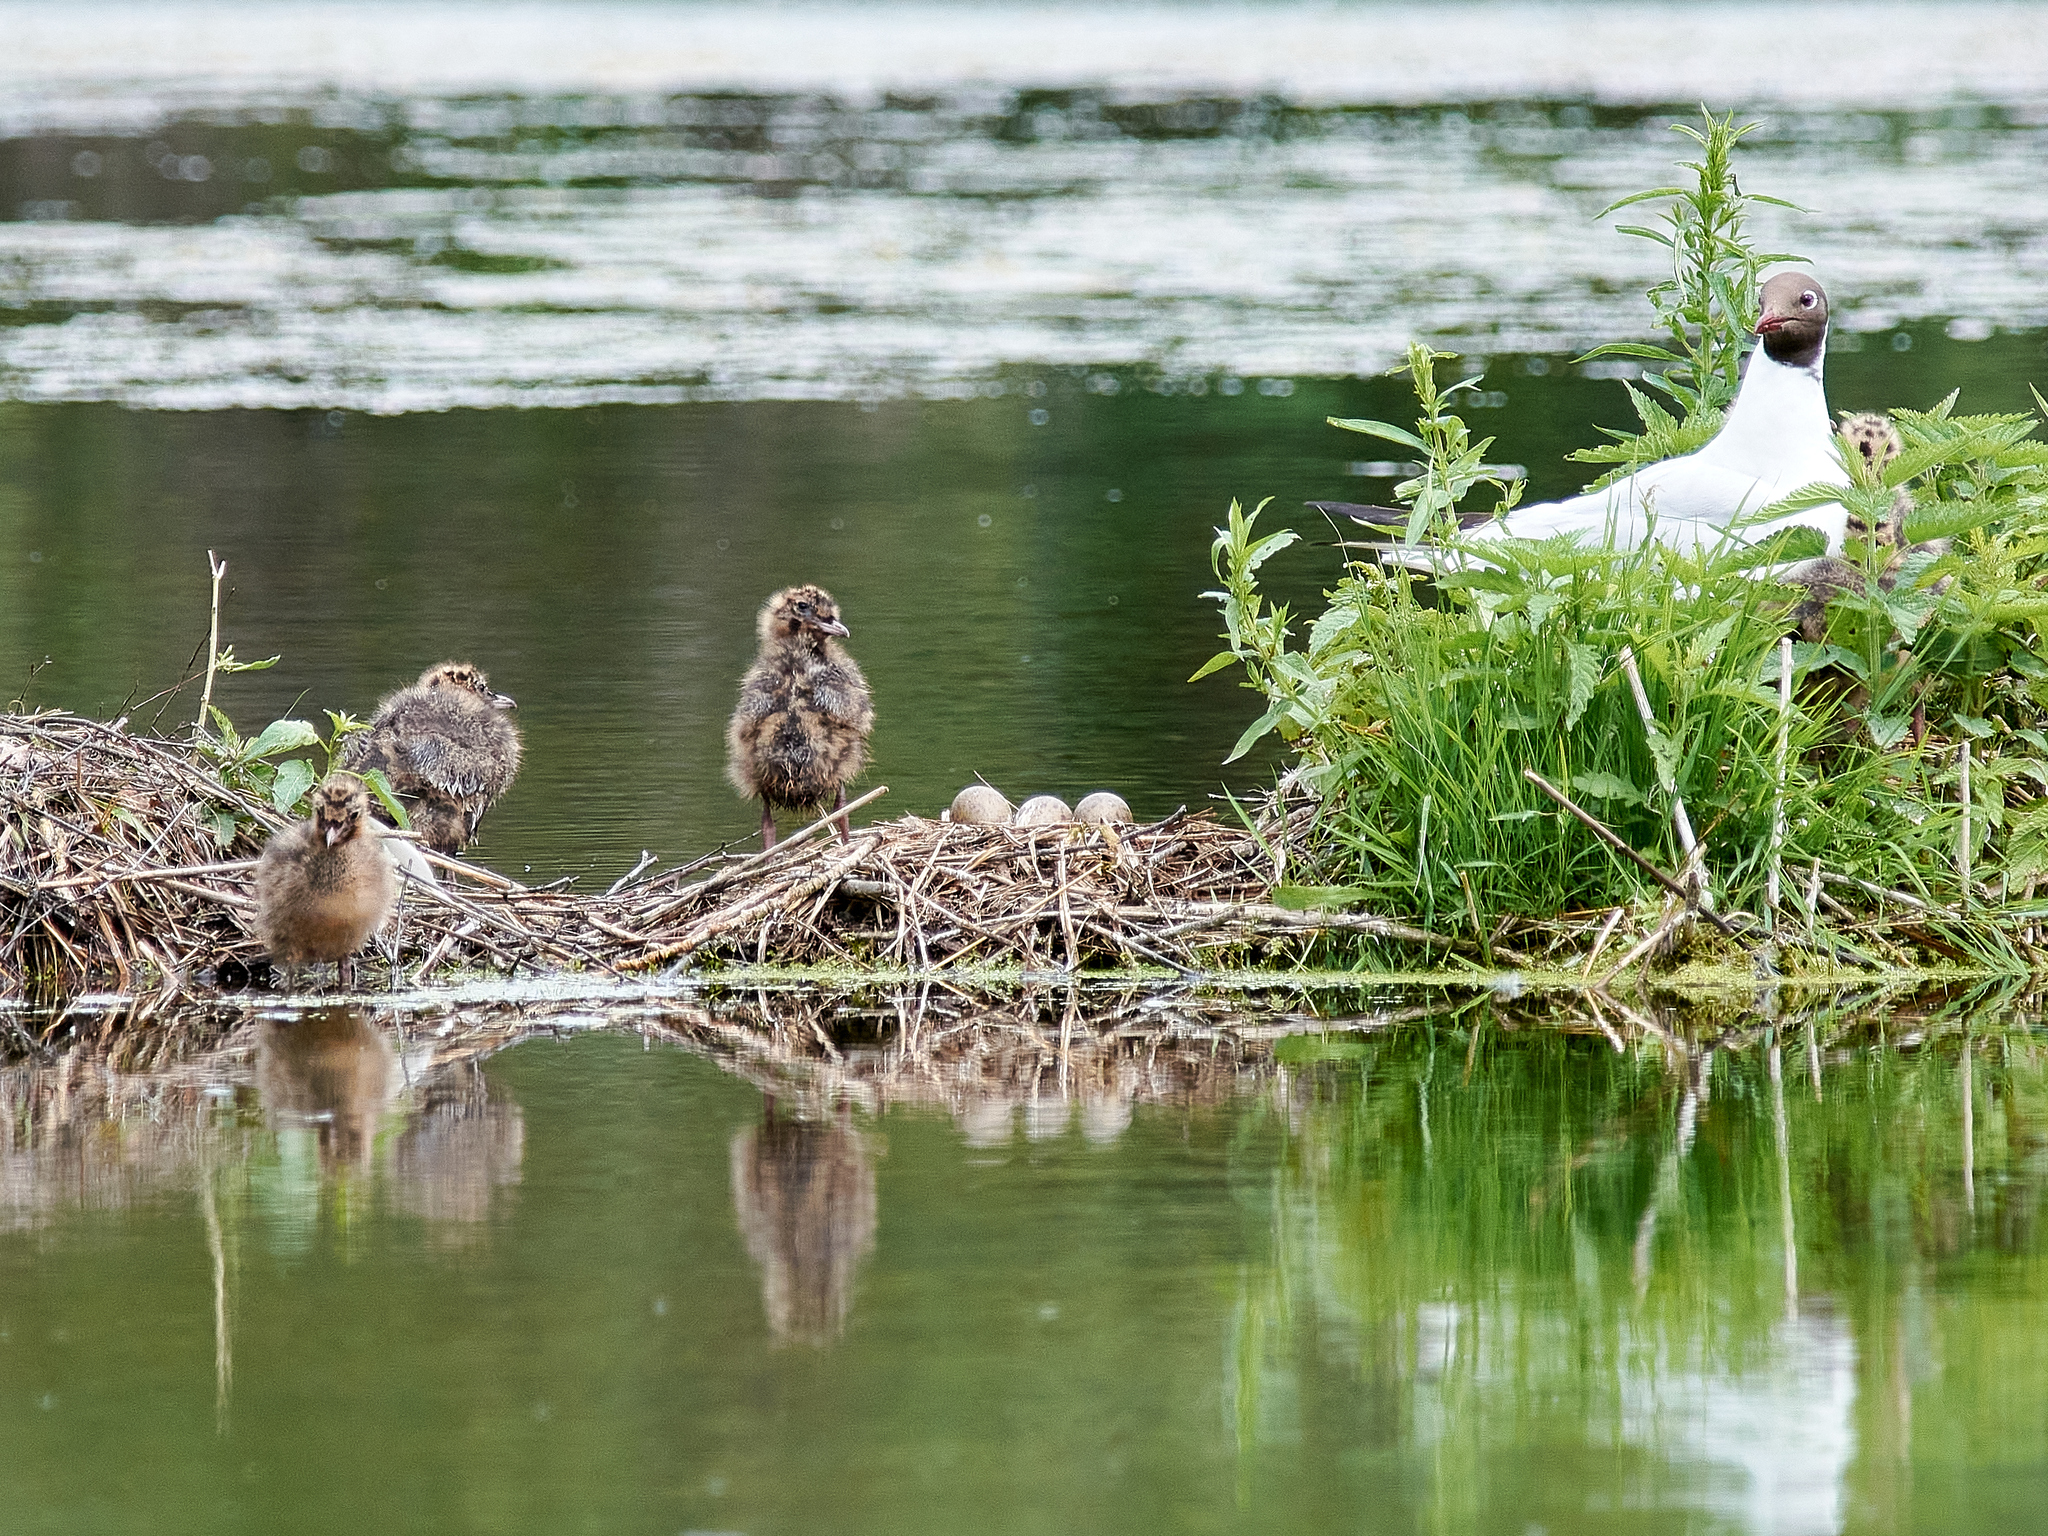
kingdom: Animalia
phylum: Chordata
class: Aves
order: Charadriiformes
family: Laridae
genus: Chroicocephalus
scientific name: Chroicocephalus ridibundus
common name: Black-headed gull
